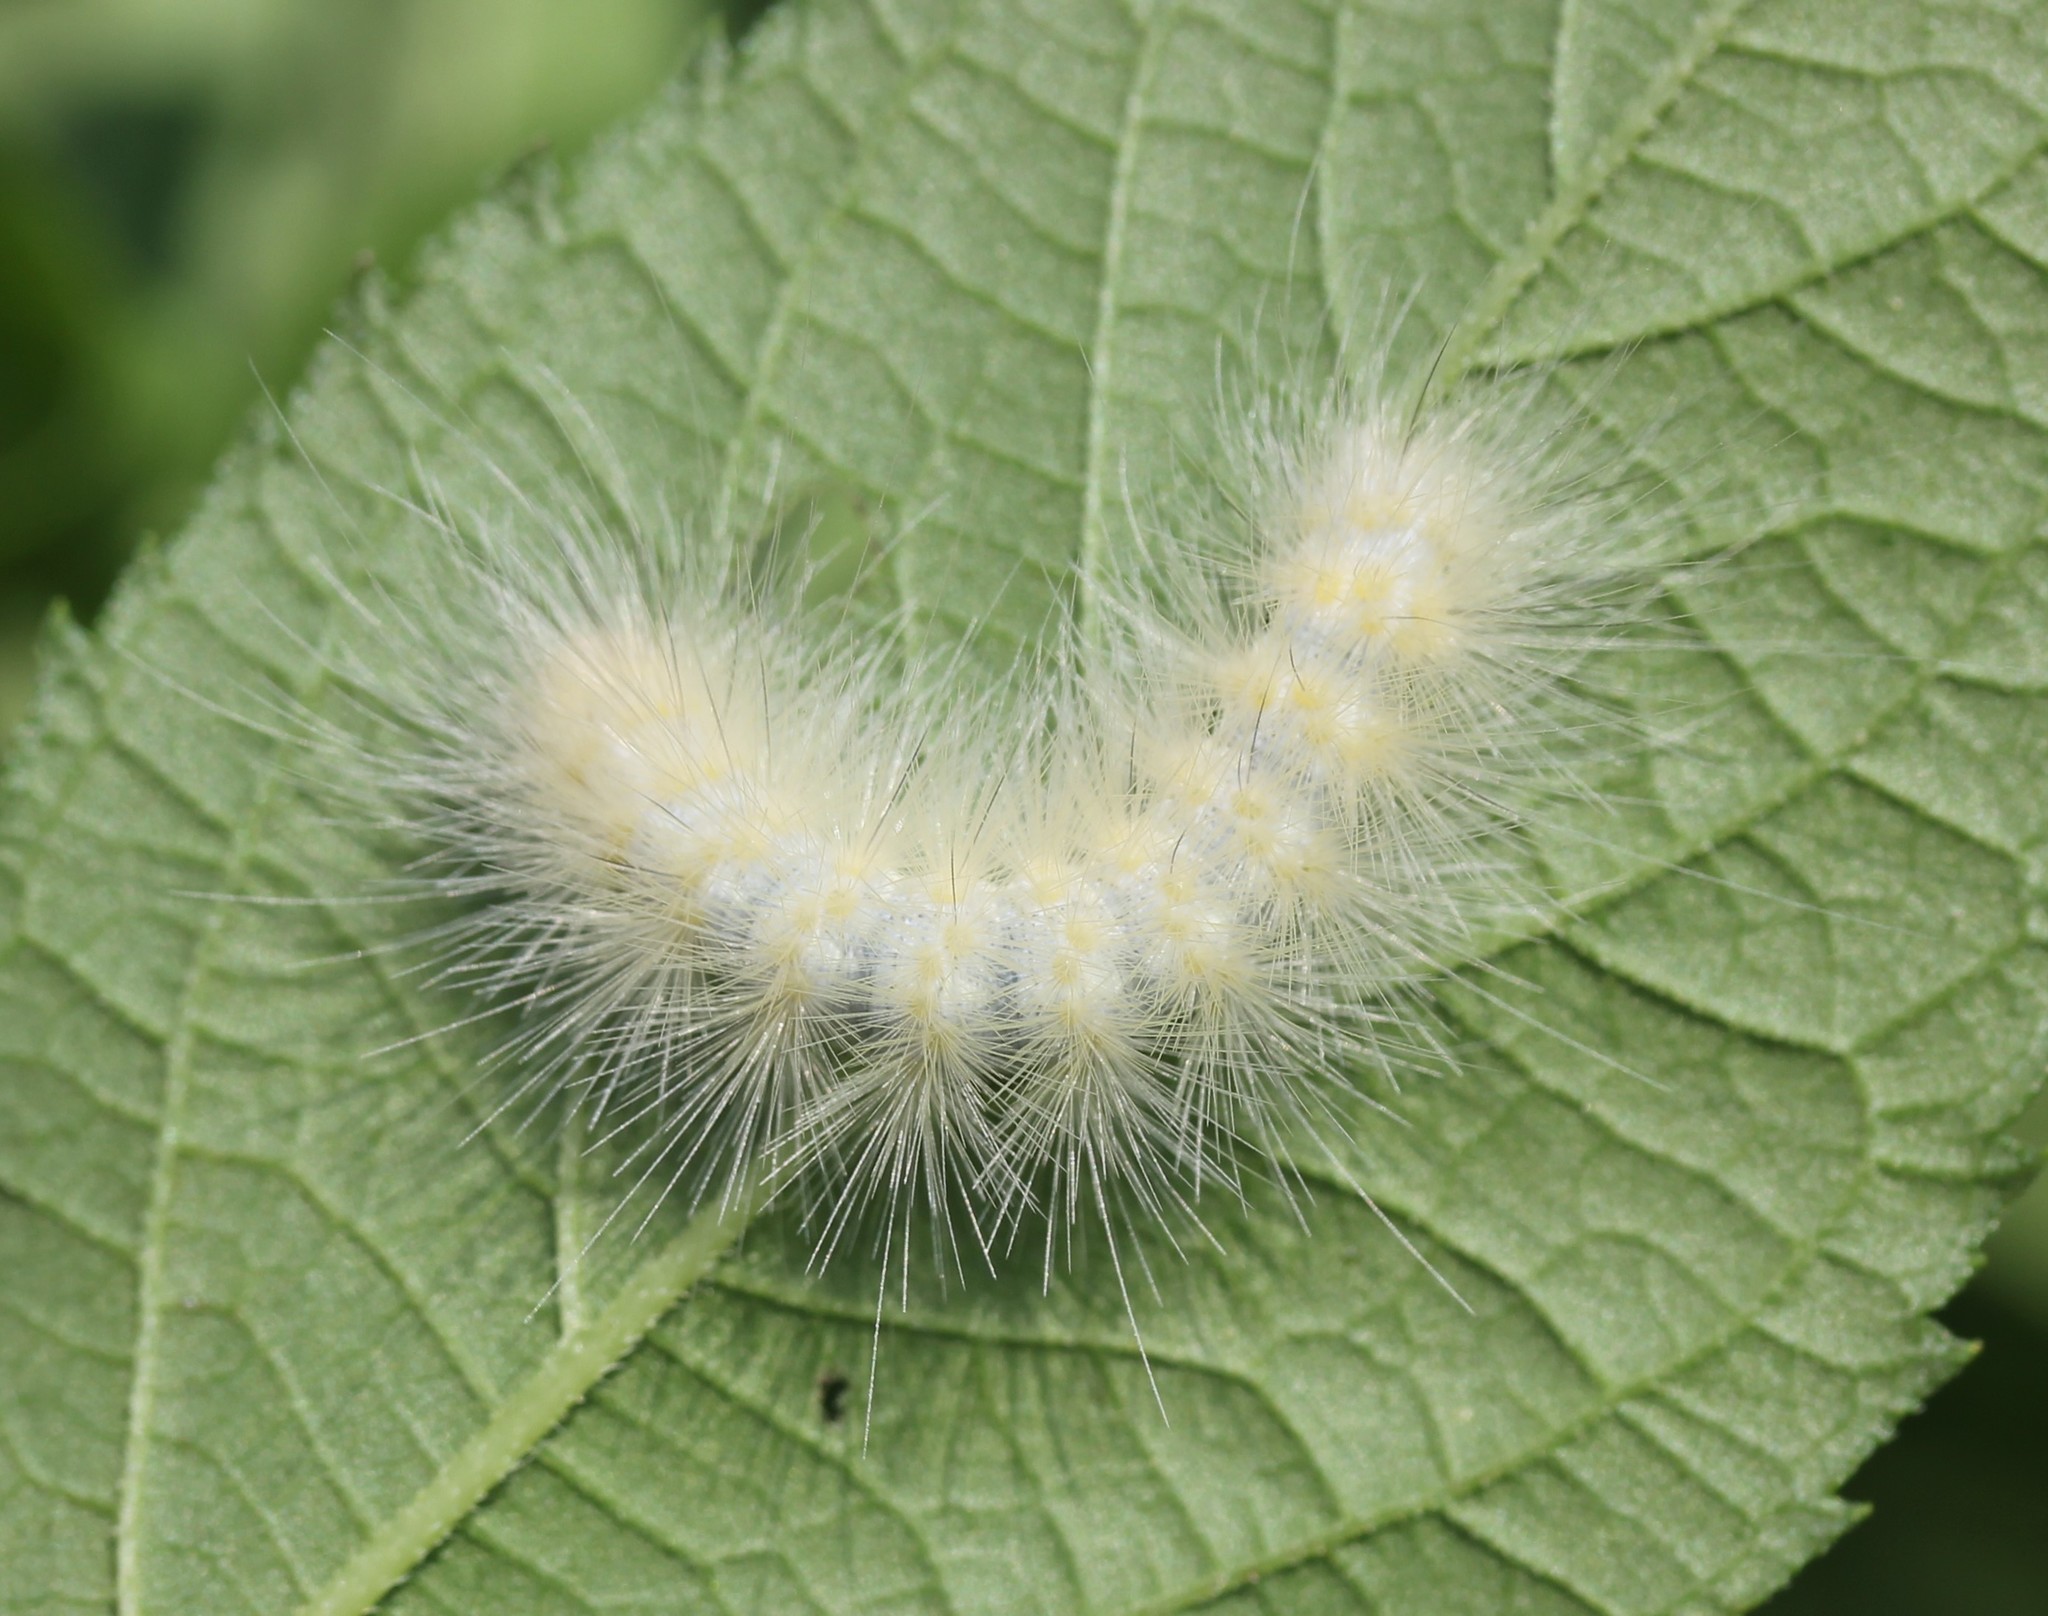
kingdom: Animalia
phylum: Arthropoda
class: Insecta
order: Lepidoptera
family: Erebidae
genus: Spilosoma
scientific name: Spilosoma virginica
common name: Virginia tiger moth
